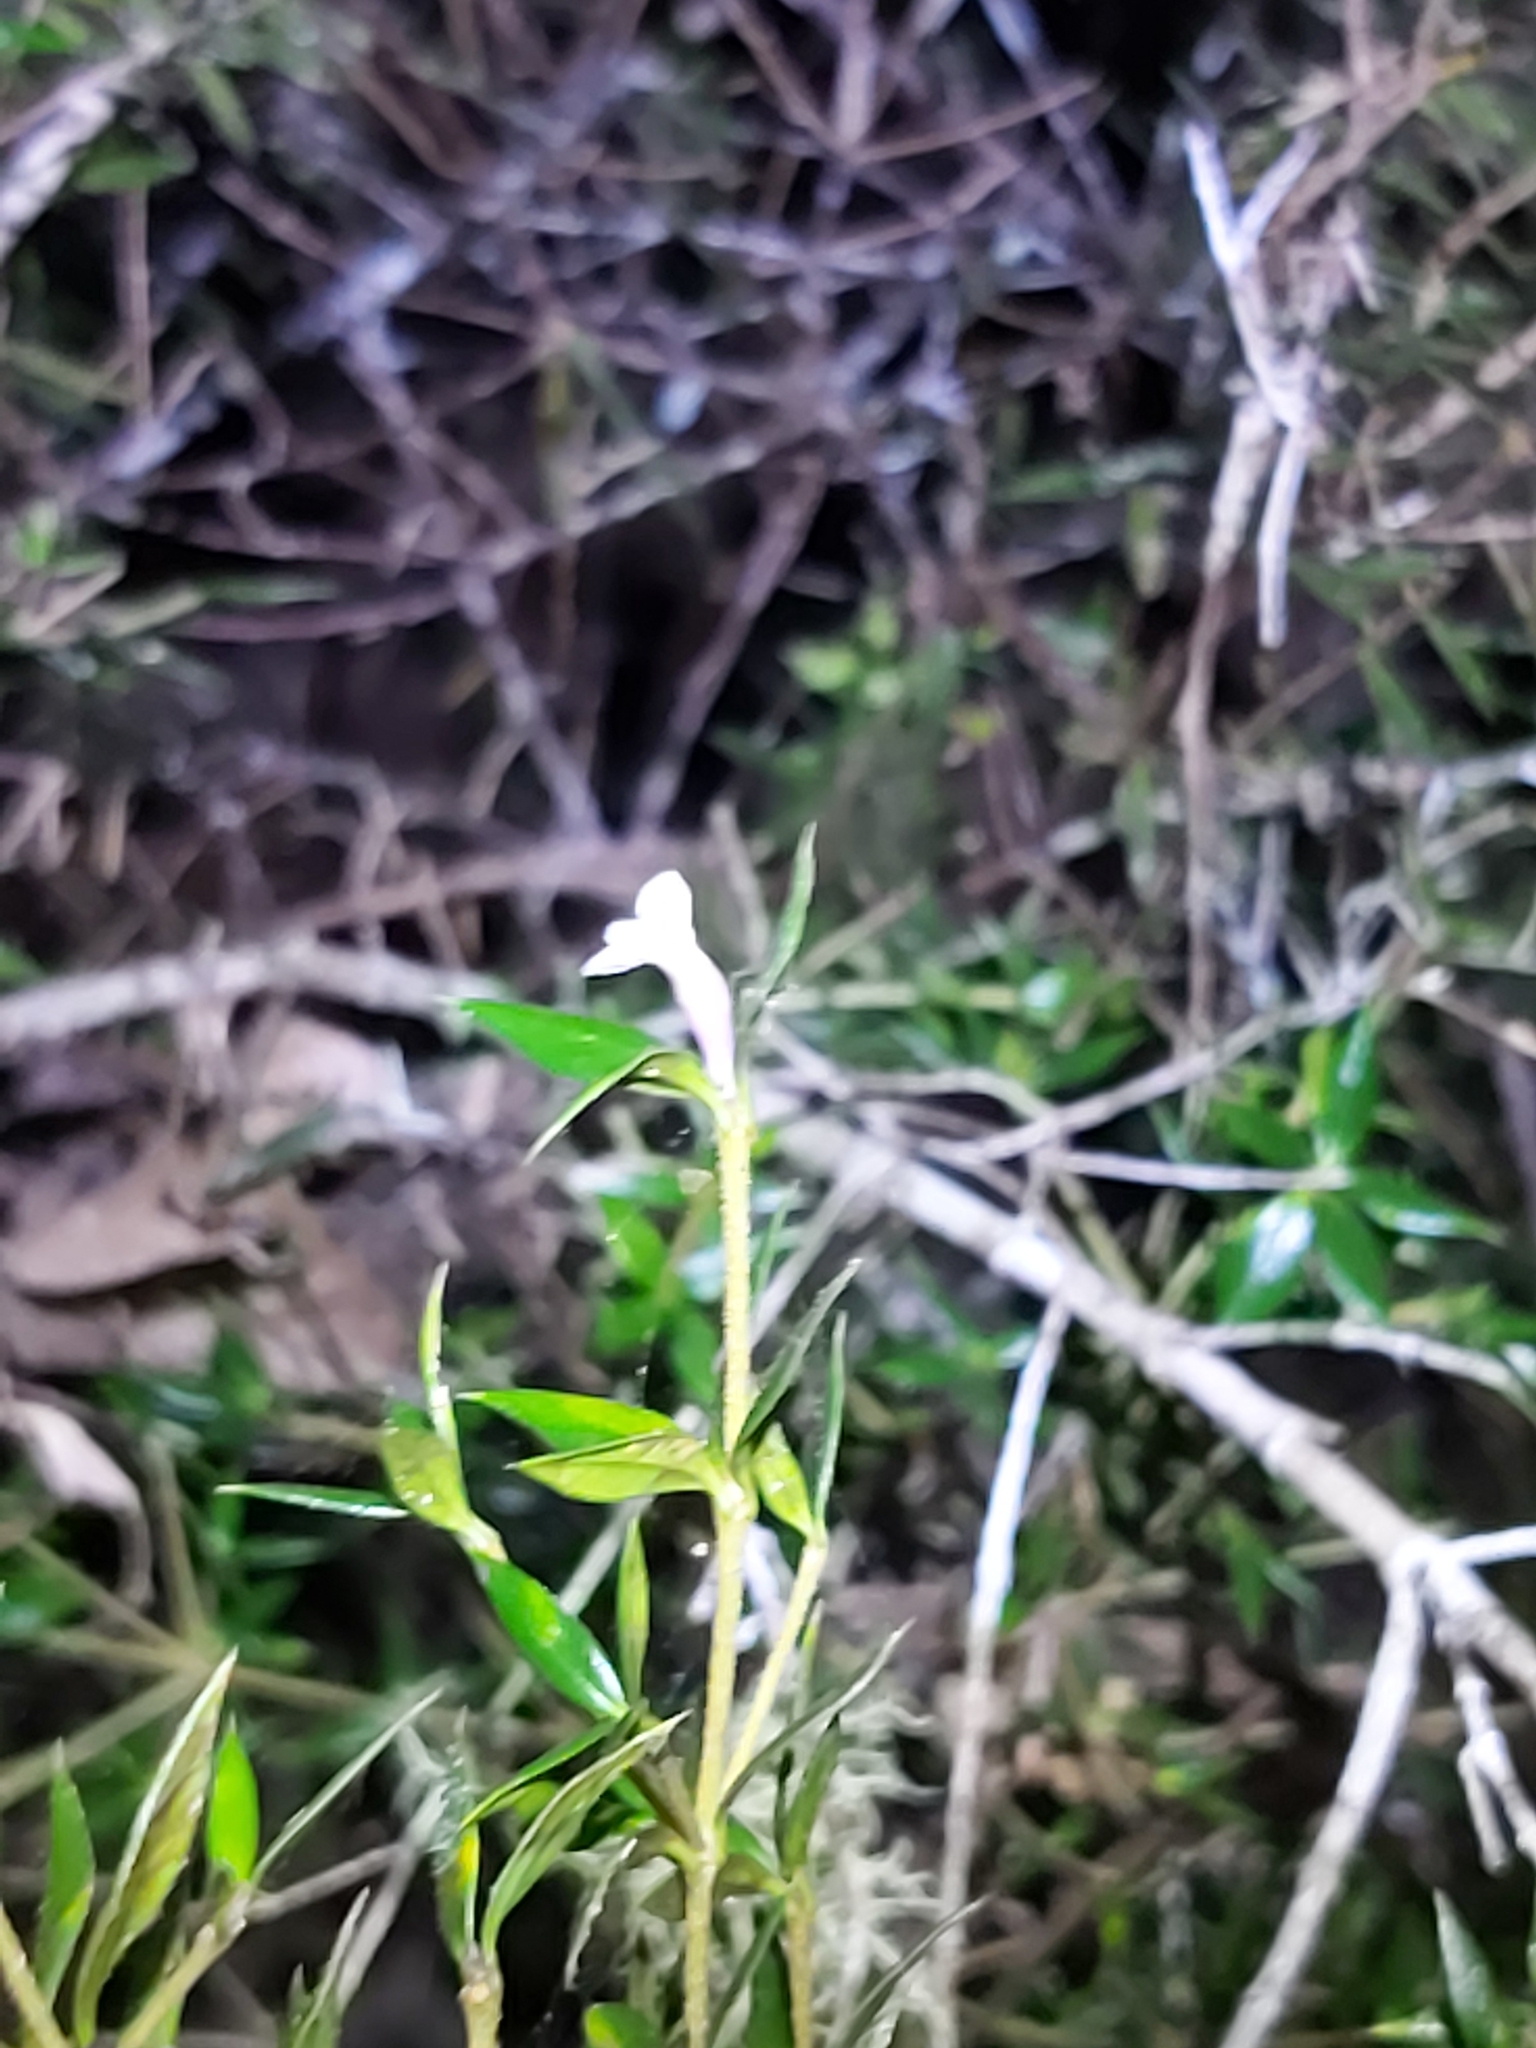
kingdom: Plantae
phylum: Tracheophyta
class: Magnoliopsida
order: Gentianales
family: Apocynaceae
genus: Alyxia
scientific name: Alyxia ruscifolia
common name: Chainfruit
